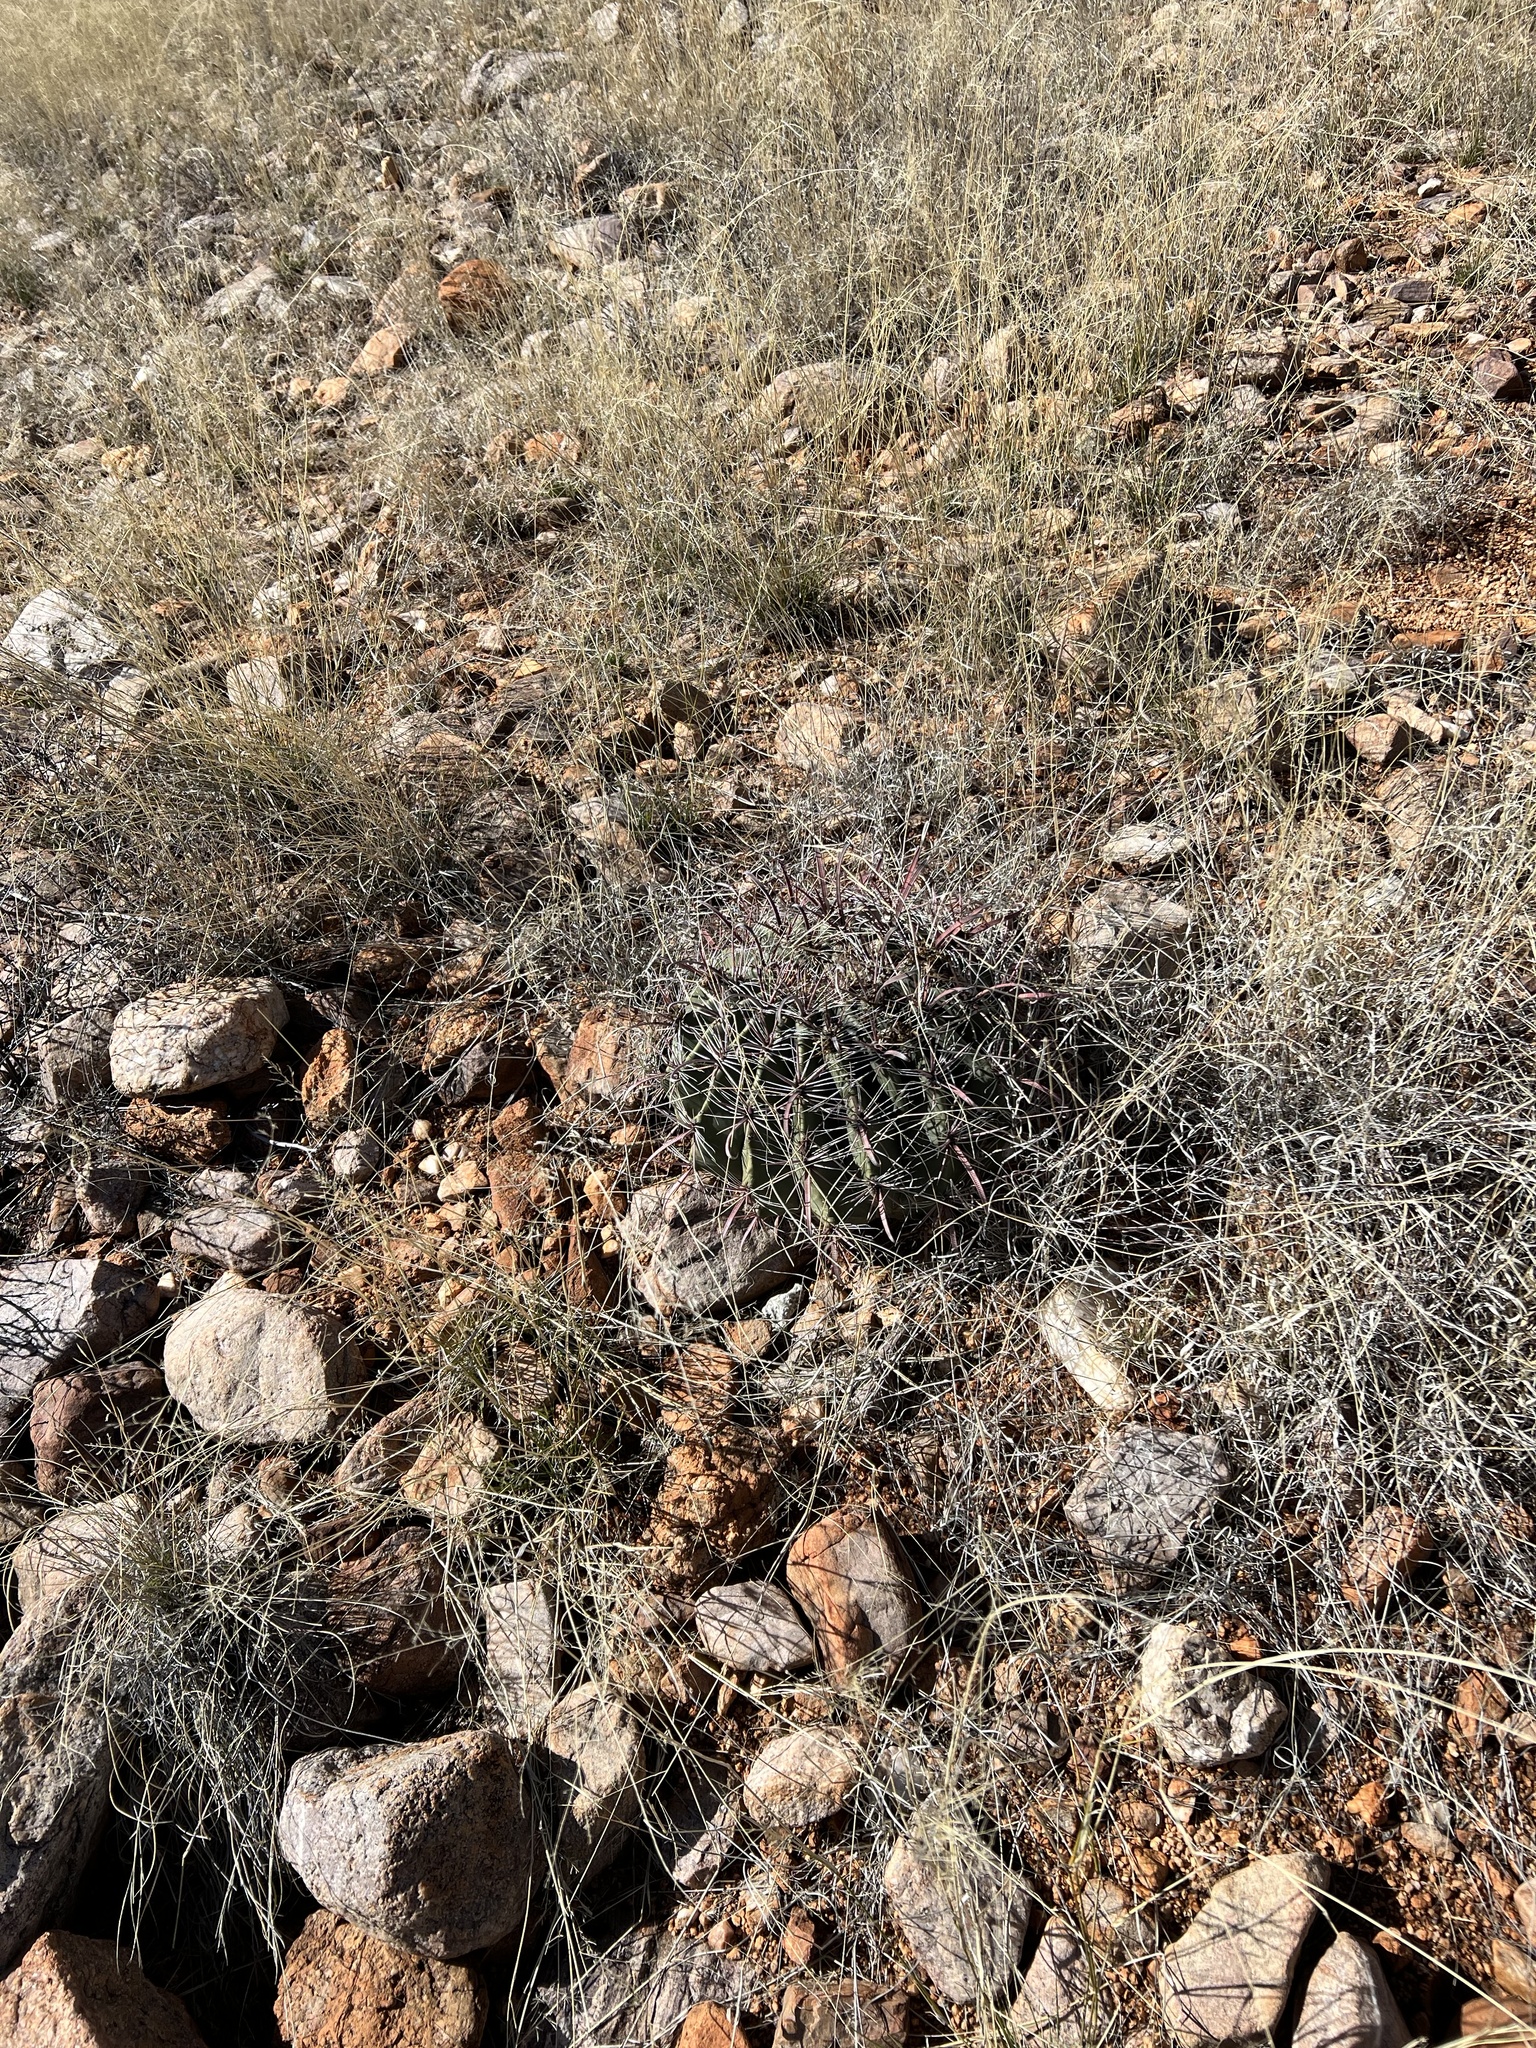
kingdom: Plantae
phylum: Tracheophyta
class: Magnoliopsida
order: Caryophyllales
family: Cactaceae
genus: Ferocactus
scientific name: Ferocactus wislizeni
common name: Candy barrel cactus
